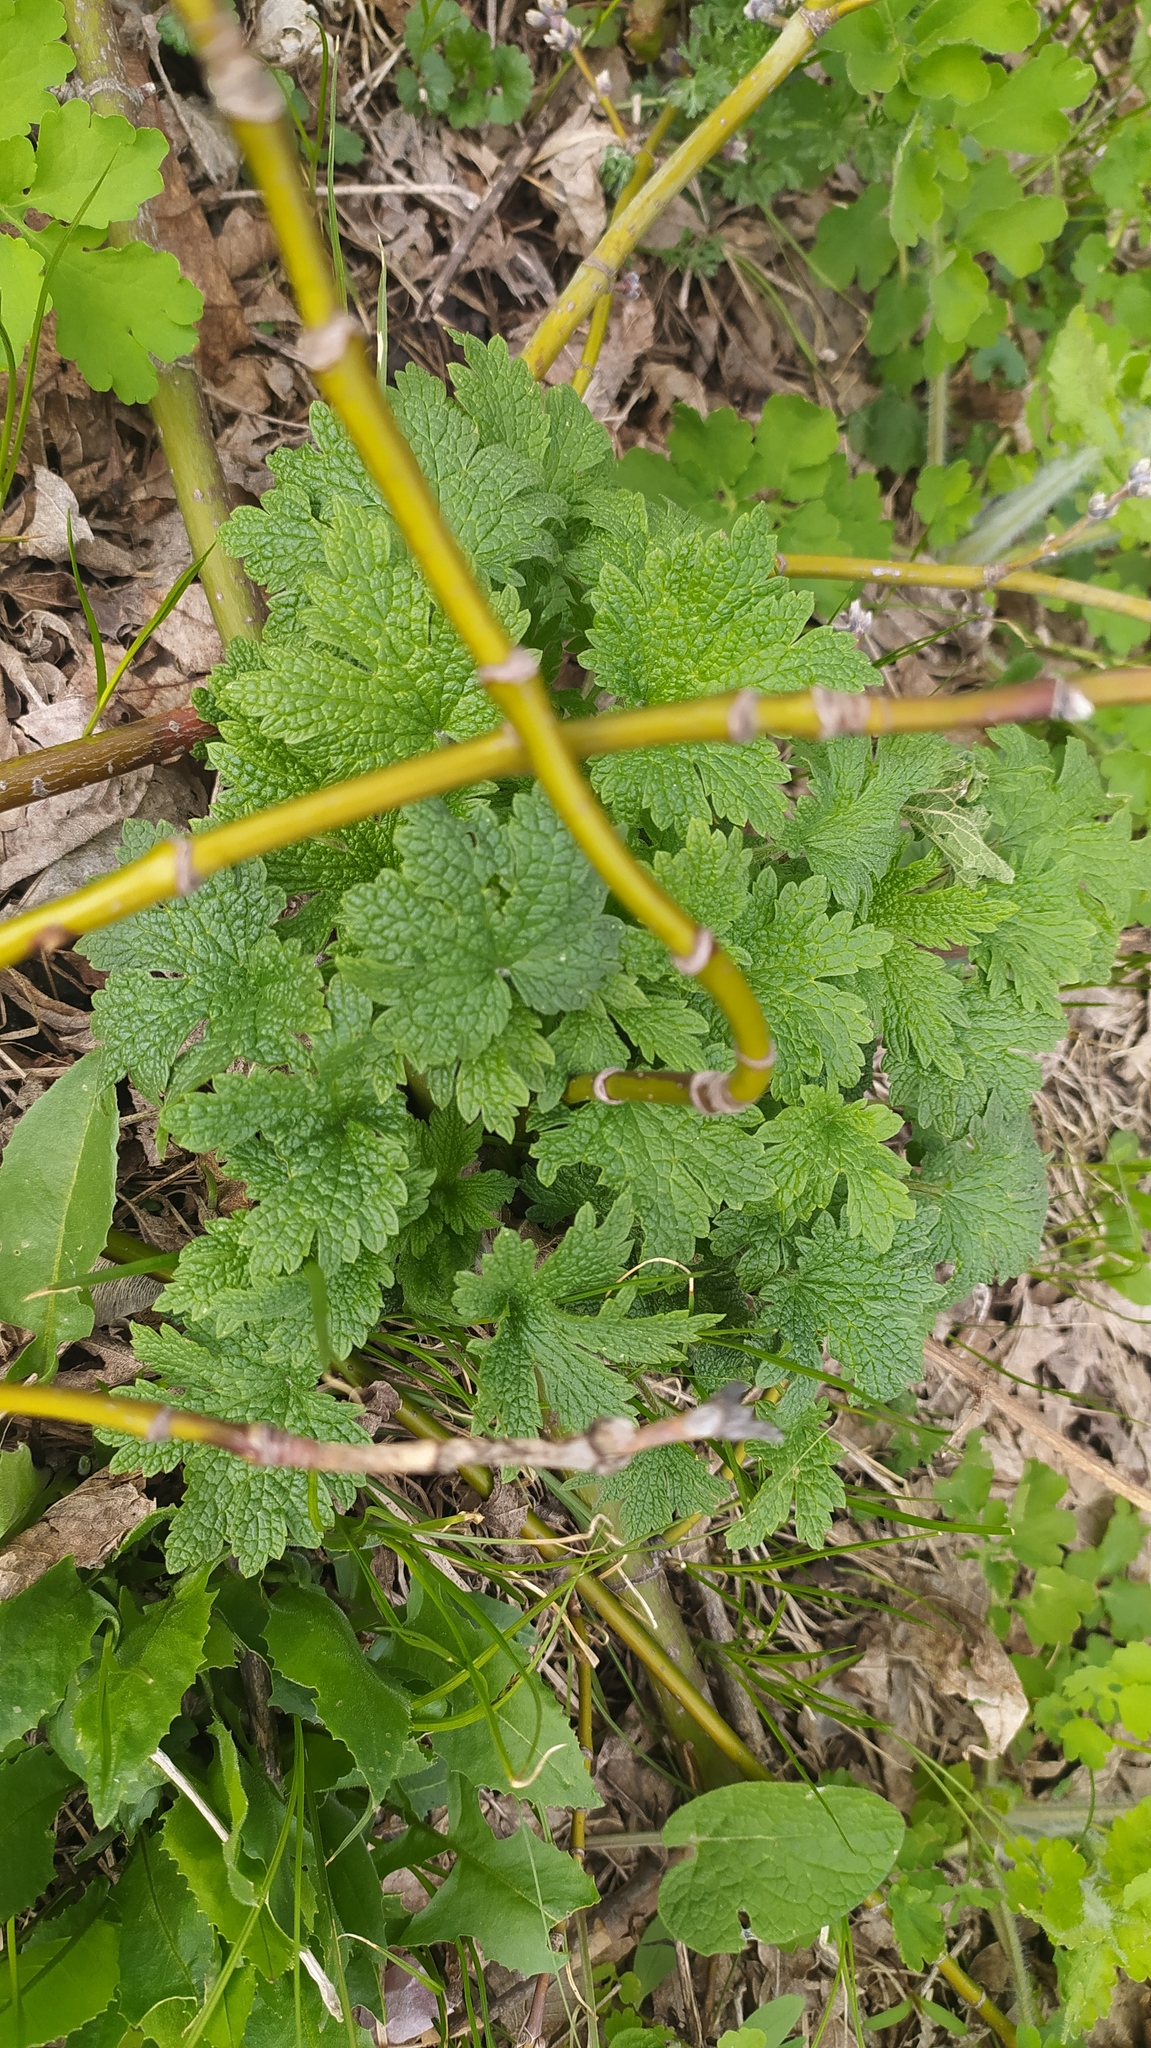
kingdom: Plantae
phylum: Tracheophyta
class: Magnoliopsida
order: Lamiales
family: Lamiaceae
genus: Leonurus
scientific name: Leonurus quinquelobatus
